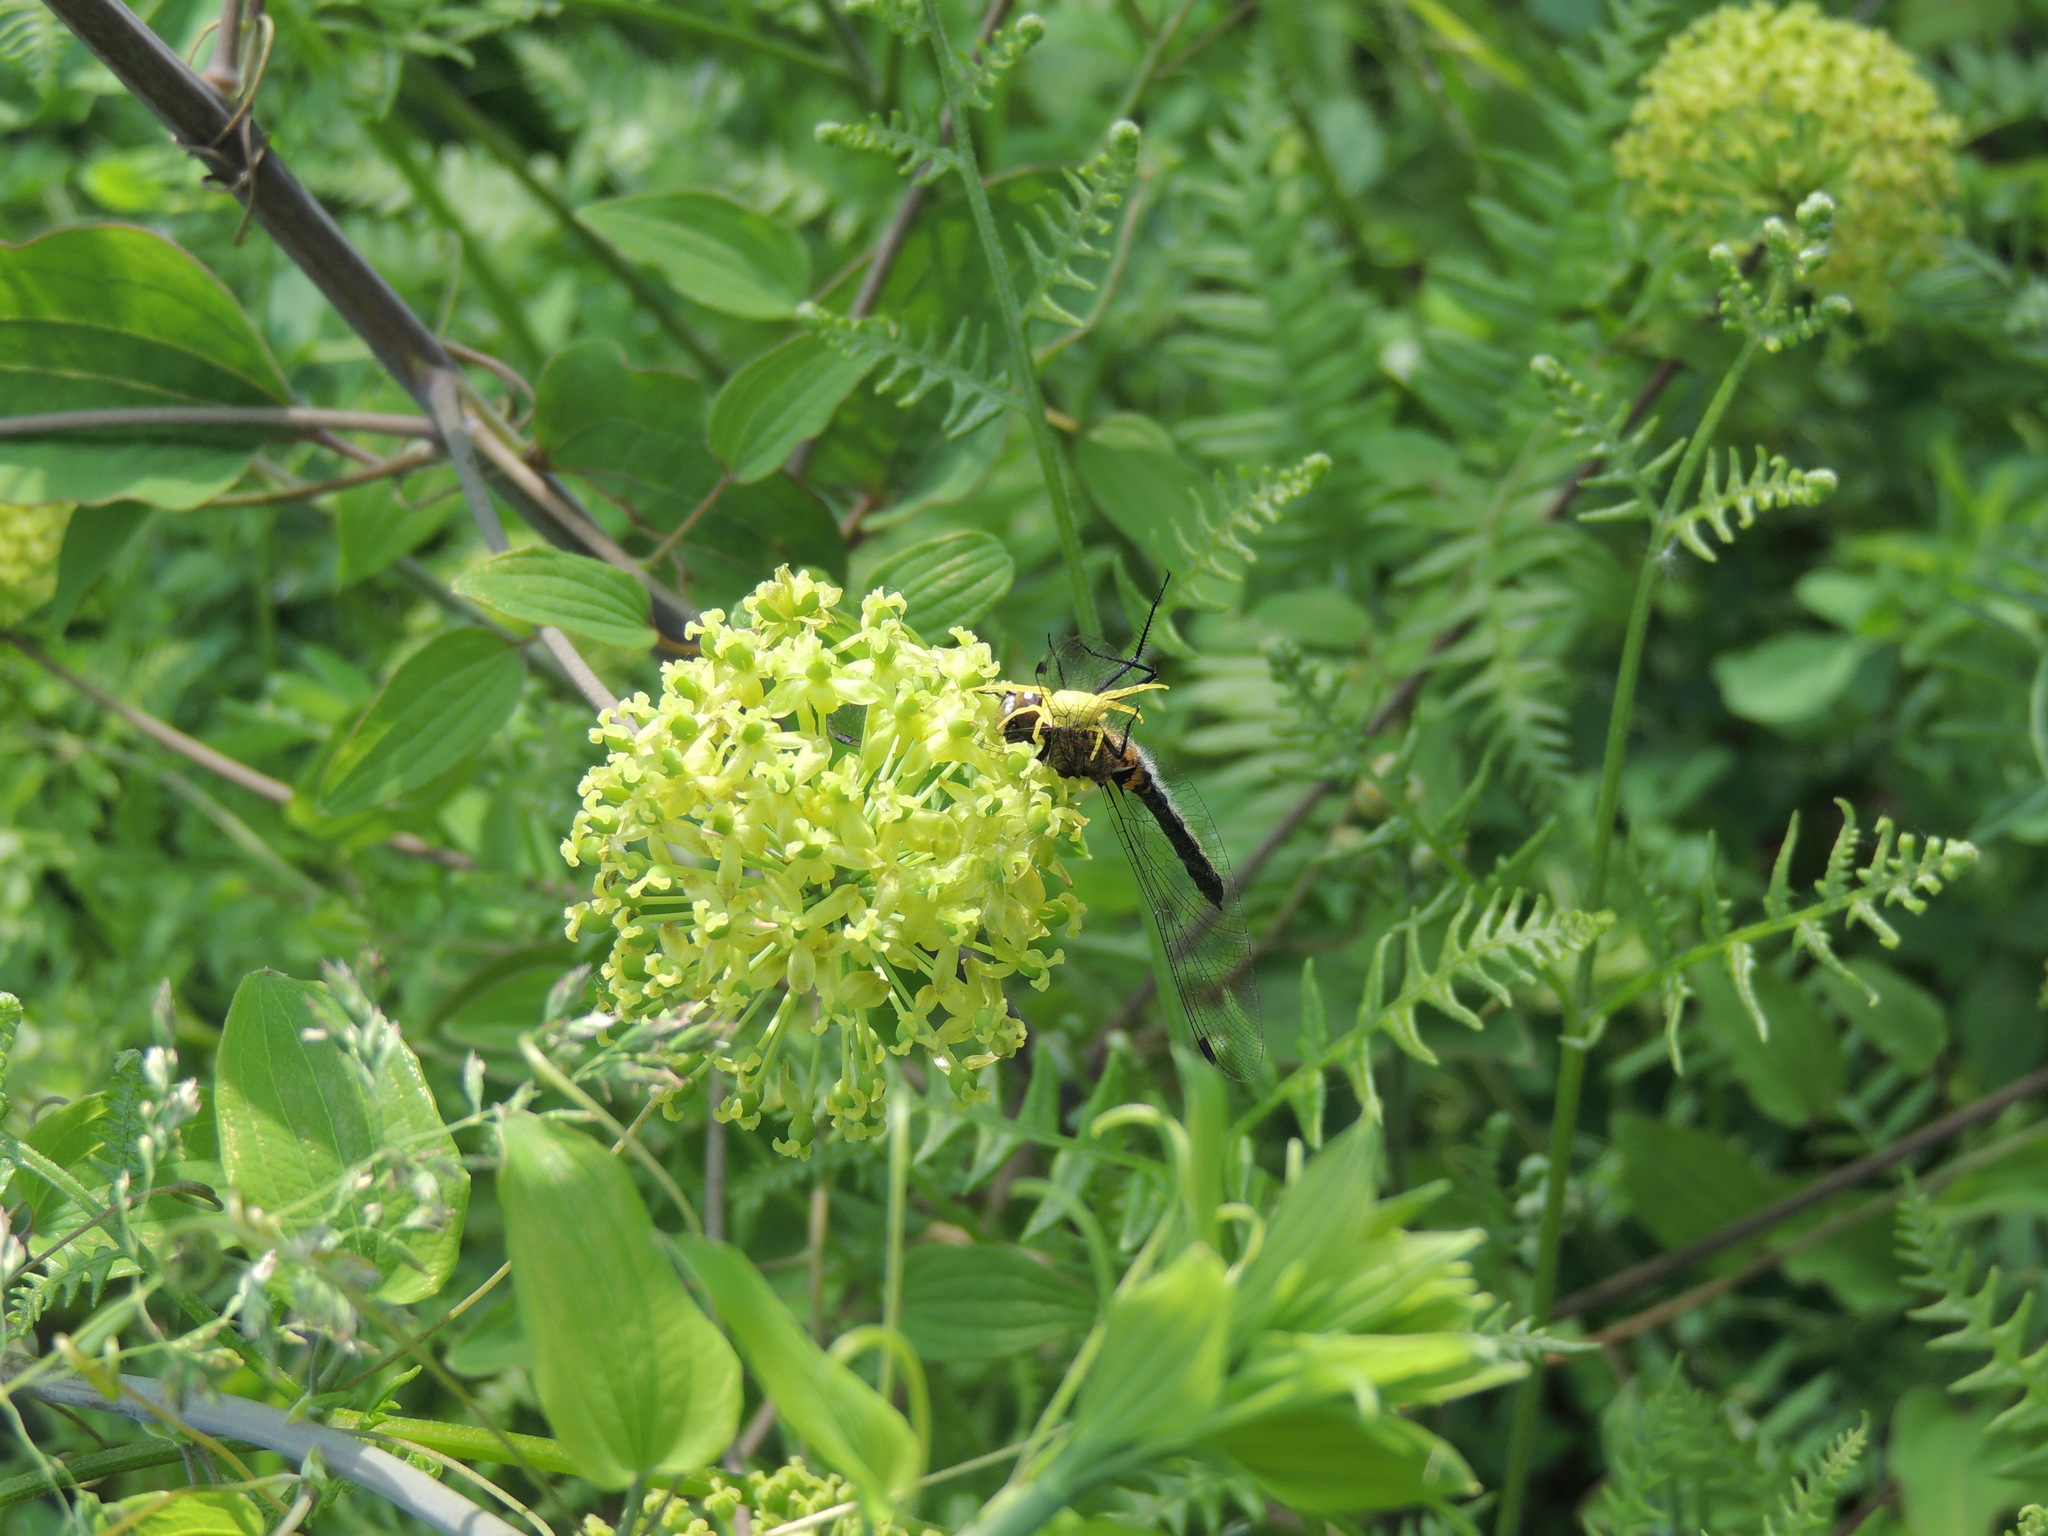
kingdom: Animalia
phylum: Arthropoda
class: Arachnida
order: Araneae
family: Thomisidae
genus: Misumena
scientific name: Misumena vatia
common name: Goldenrod crab spider
